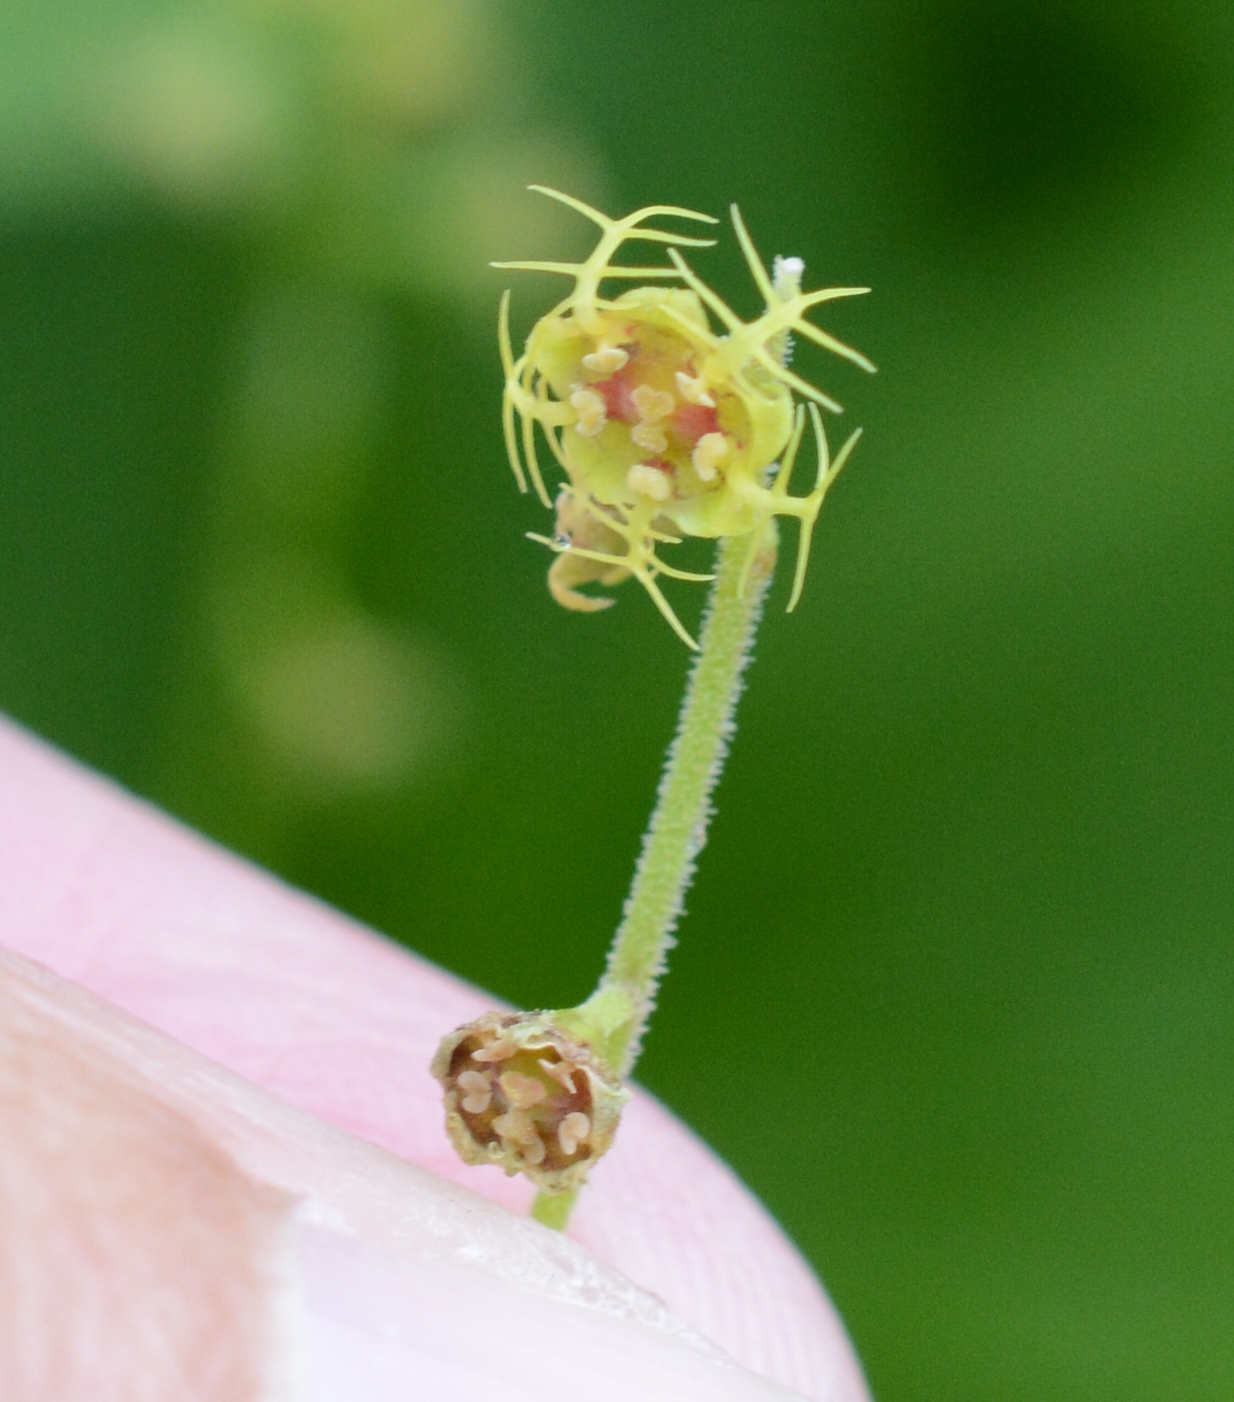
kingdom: Plantae
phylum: Tracheophyta
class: Magnoliopsida
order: Saxifragales
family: Saxifragaceae
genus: Pectiantia
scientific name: Pectiantia pentandra
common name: Alpine bishop's-cap
